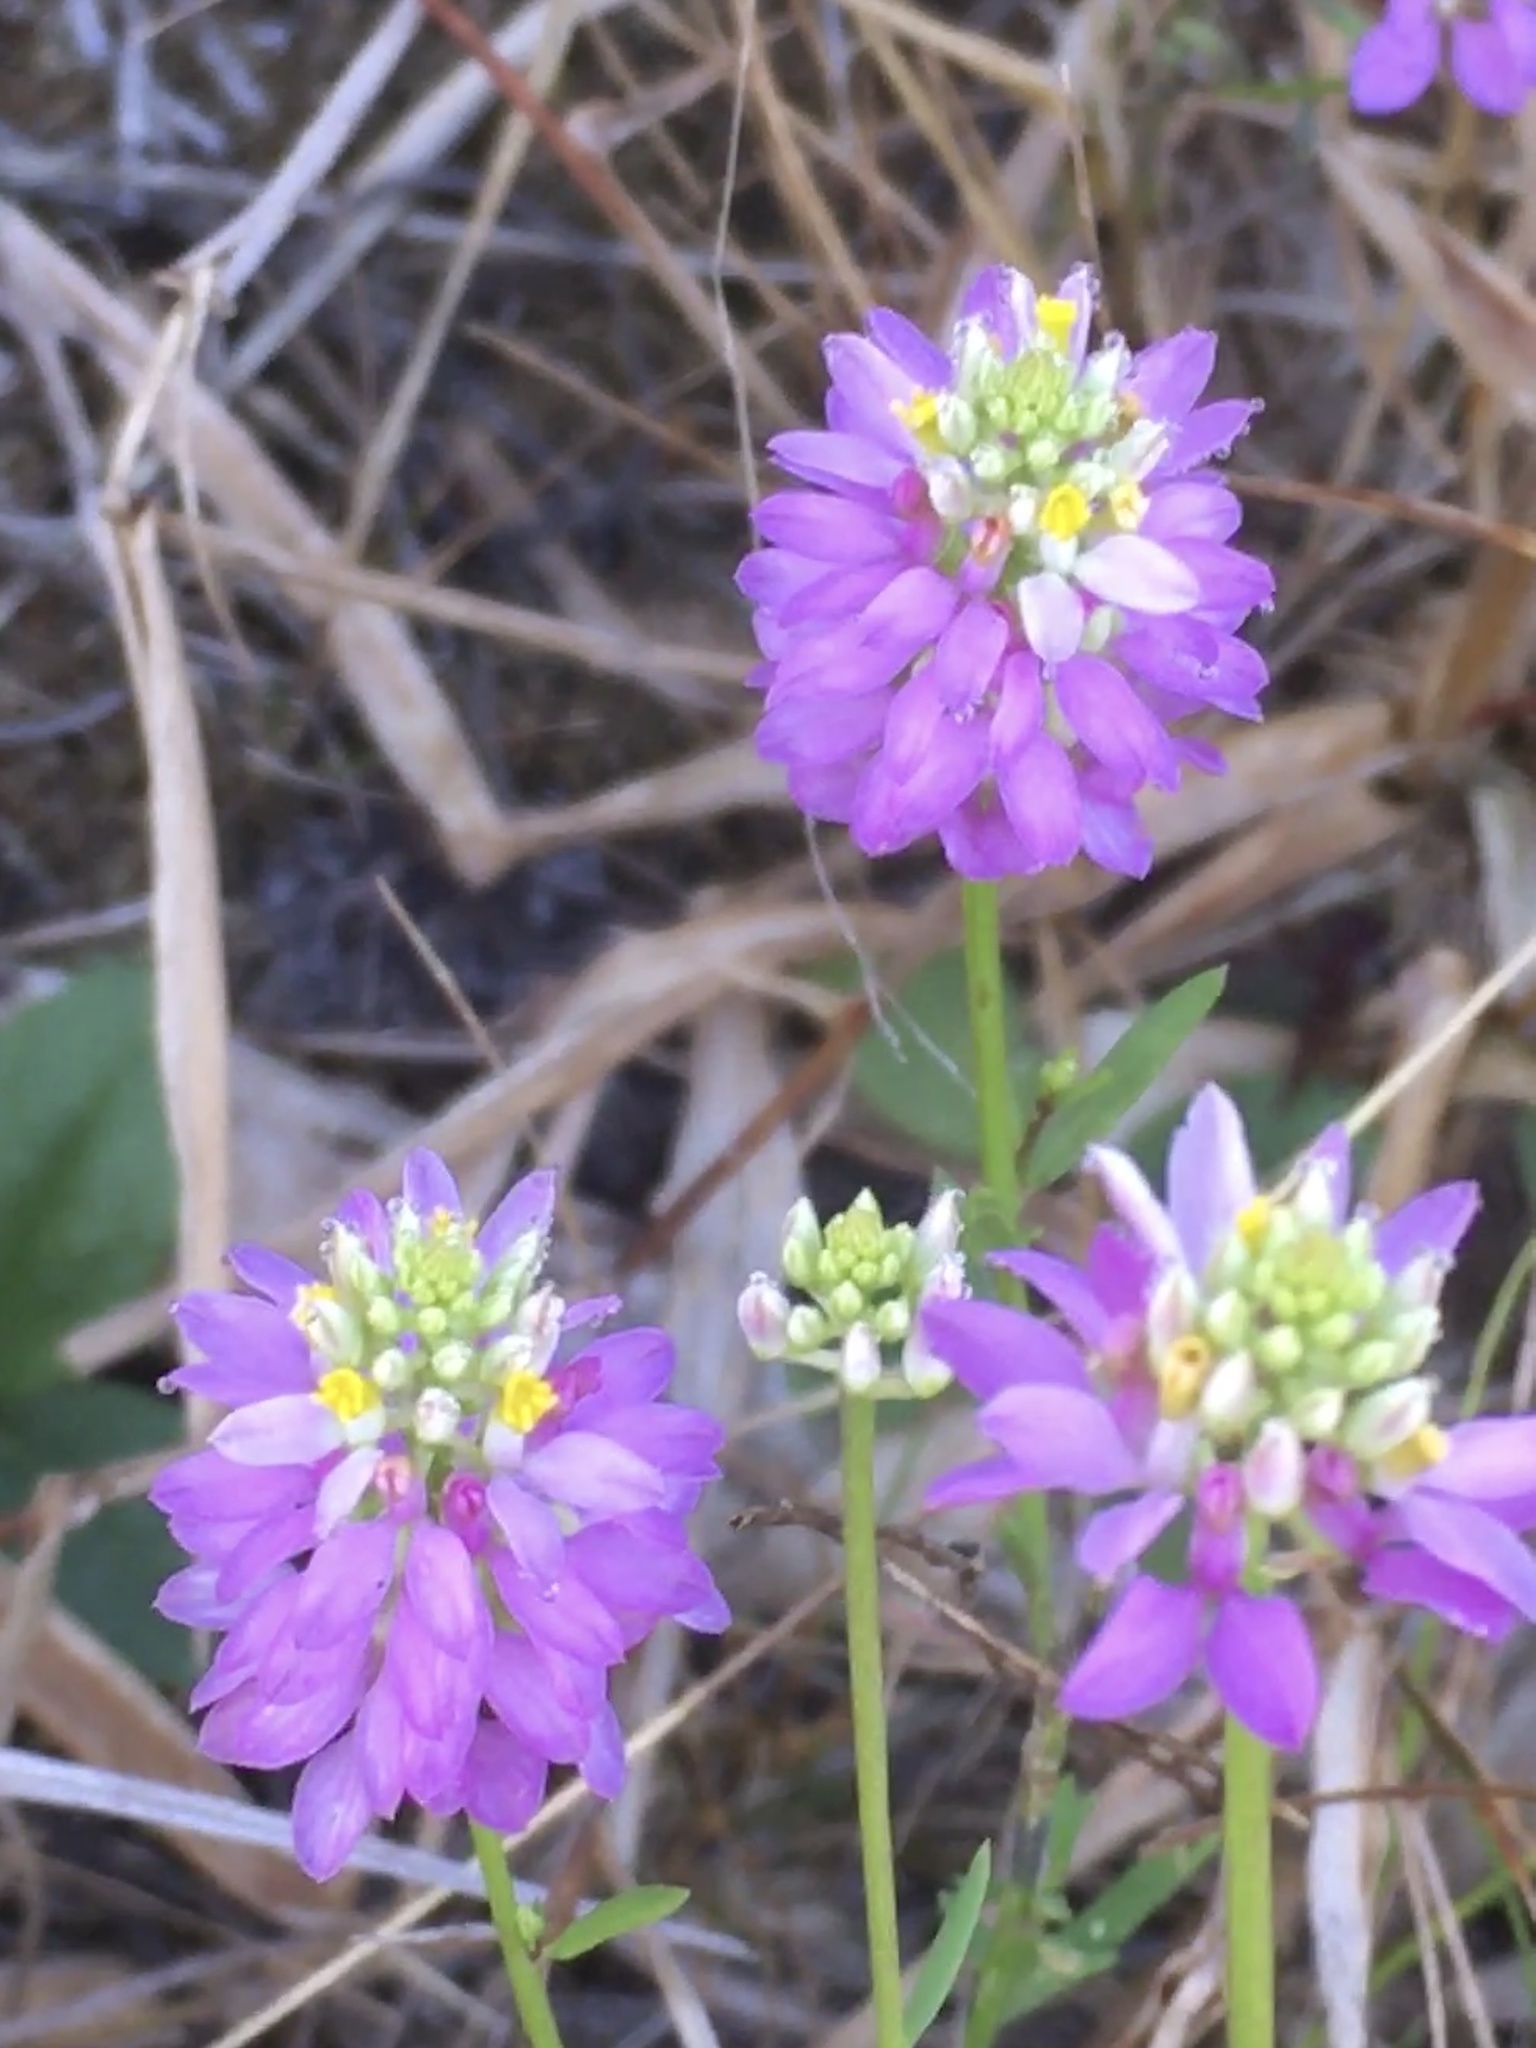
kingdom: Plantae
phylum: Tracheophyta
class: Magnoliopsida
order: Fabales
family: Polygalaceae
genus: Polygala
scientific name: Polygala curtissii
